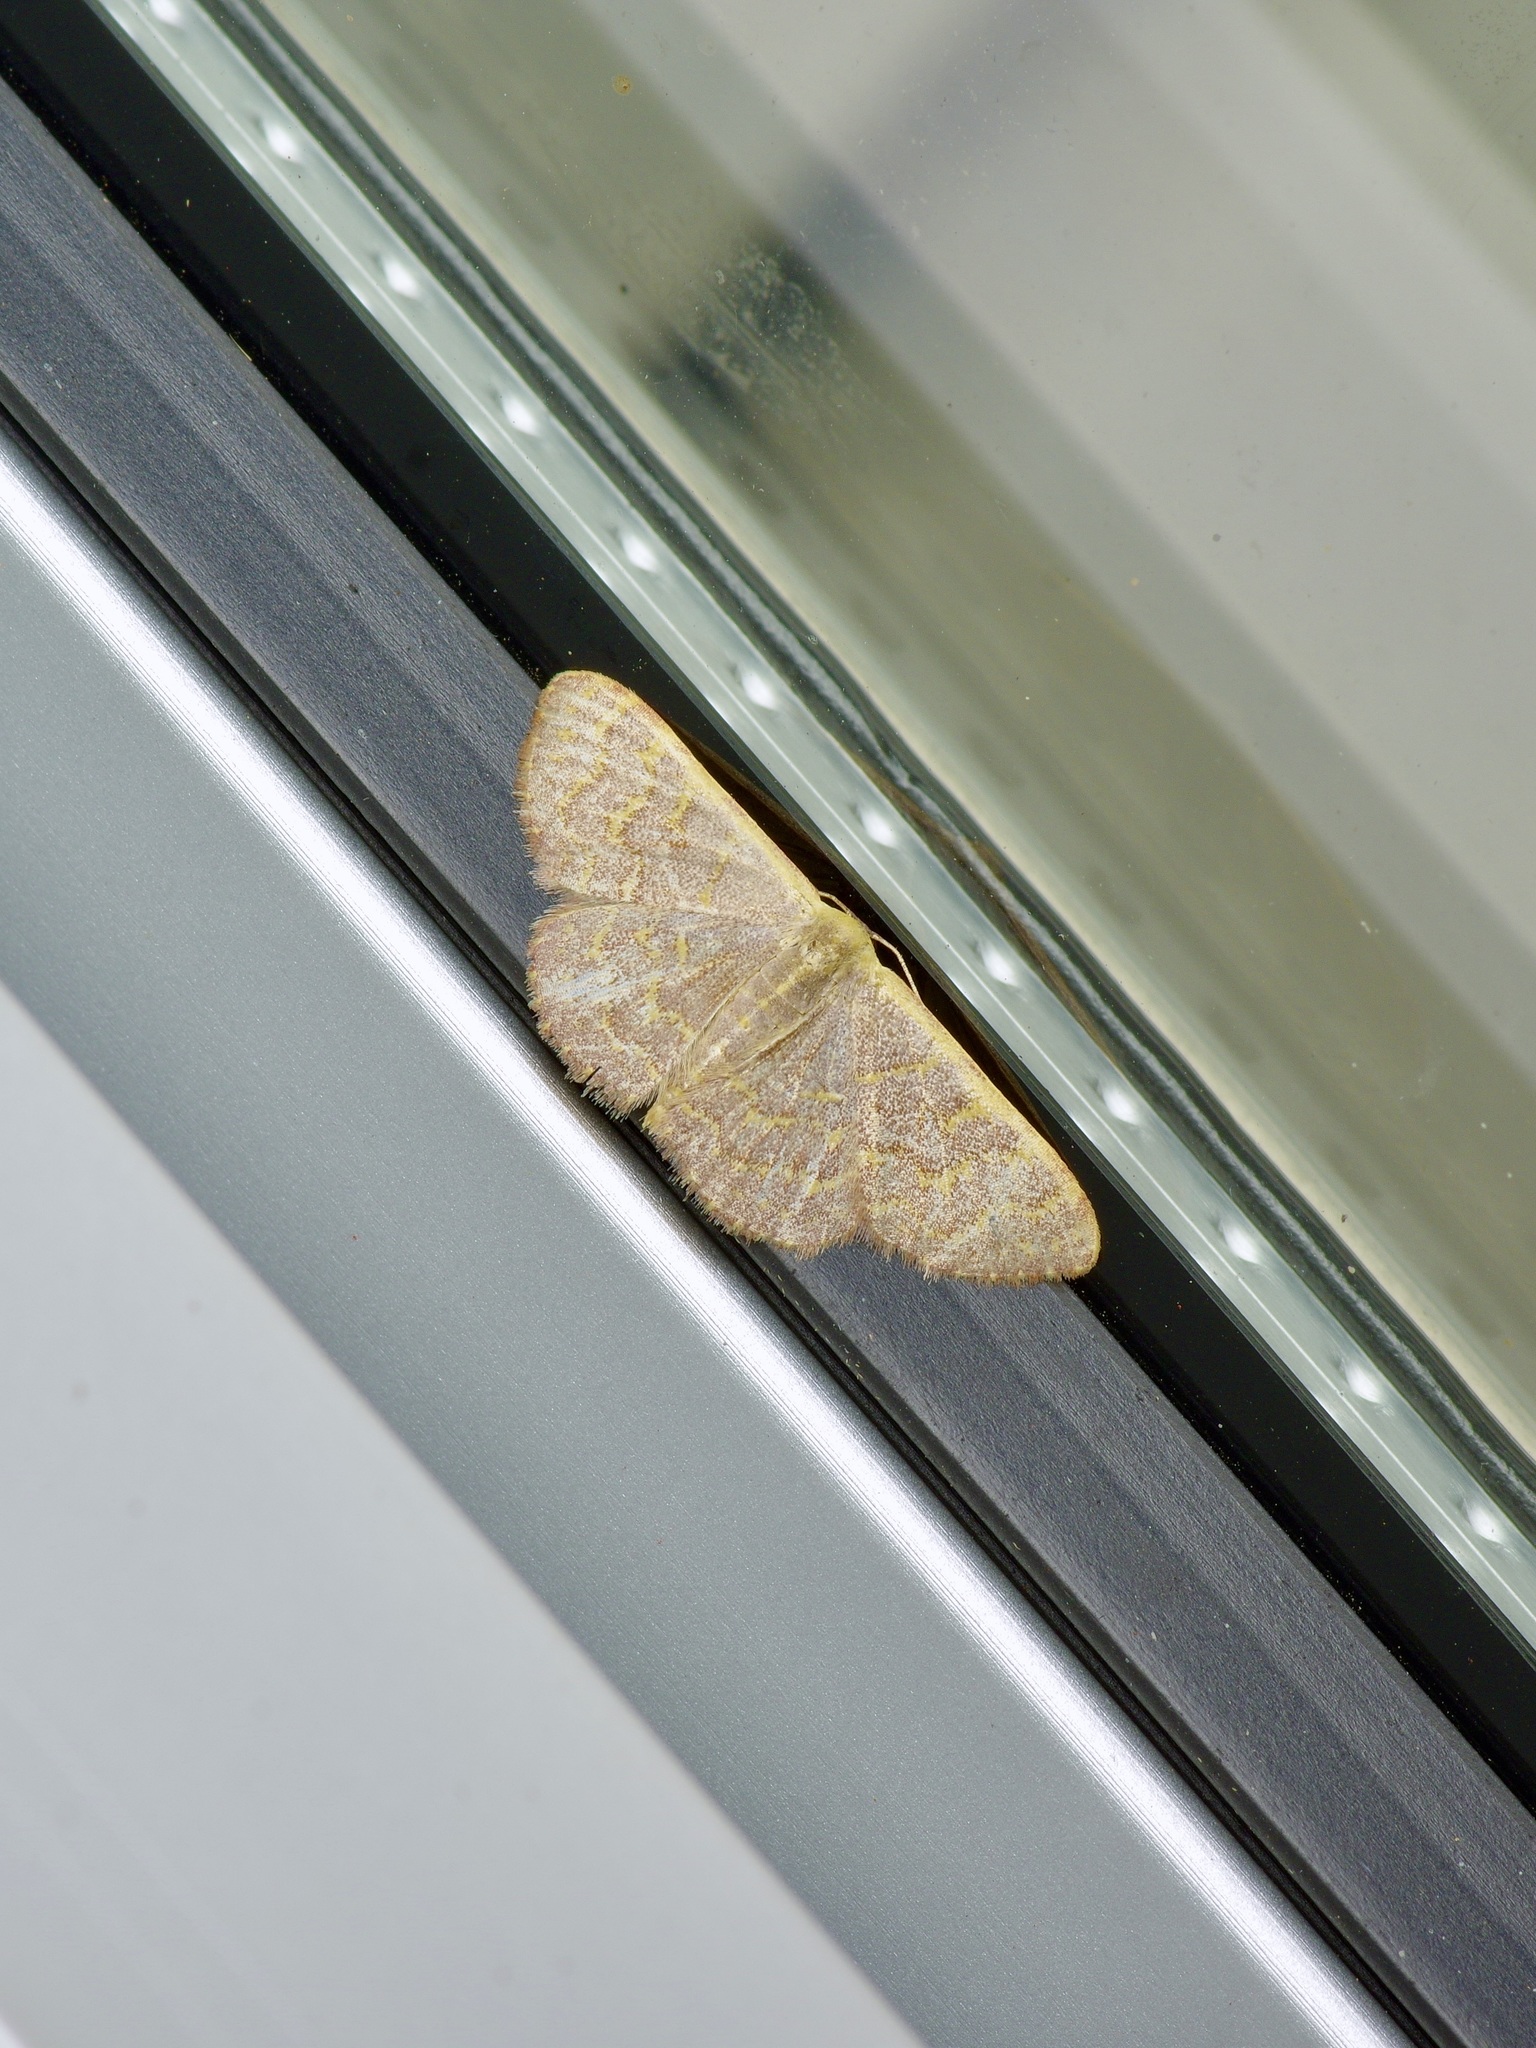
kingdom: Animalia
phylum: Arthropoda
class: Insecta
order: Lepidoptera
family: Geometridae
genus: Leptostales
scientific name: Leptostales pannaria
